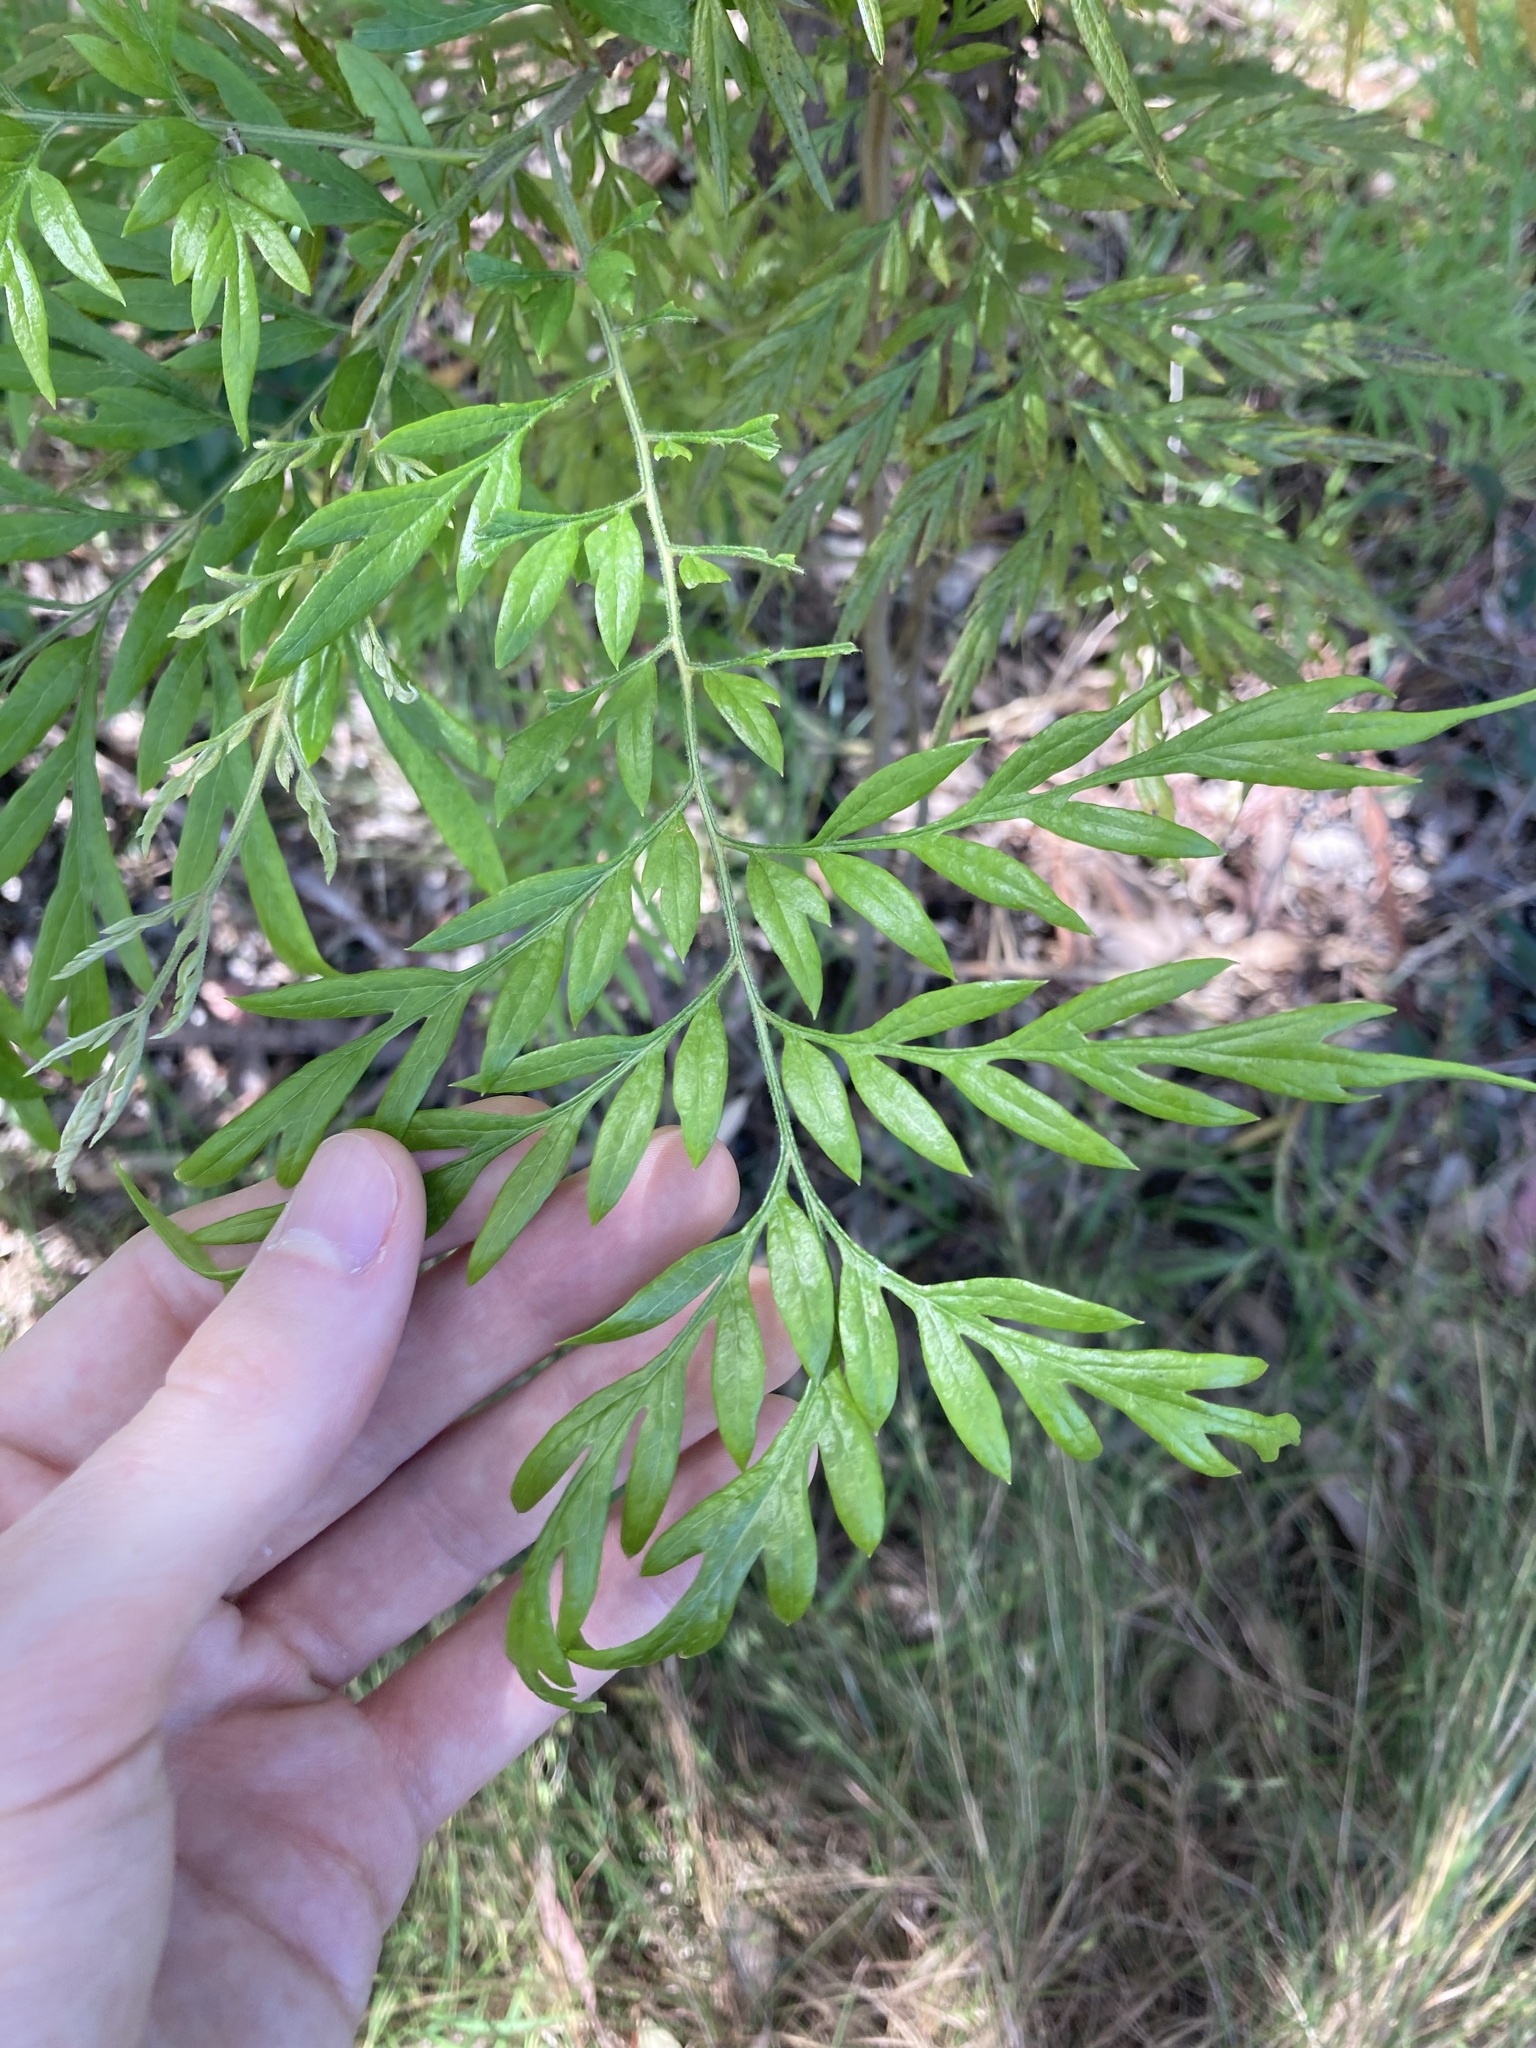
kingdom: Plantae
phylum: Tracheophyta
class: Magnoliopsida
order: Proteales
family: Proteaceae
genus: Grevillea
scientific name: Grevillea robusta
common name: Silkoak
